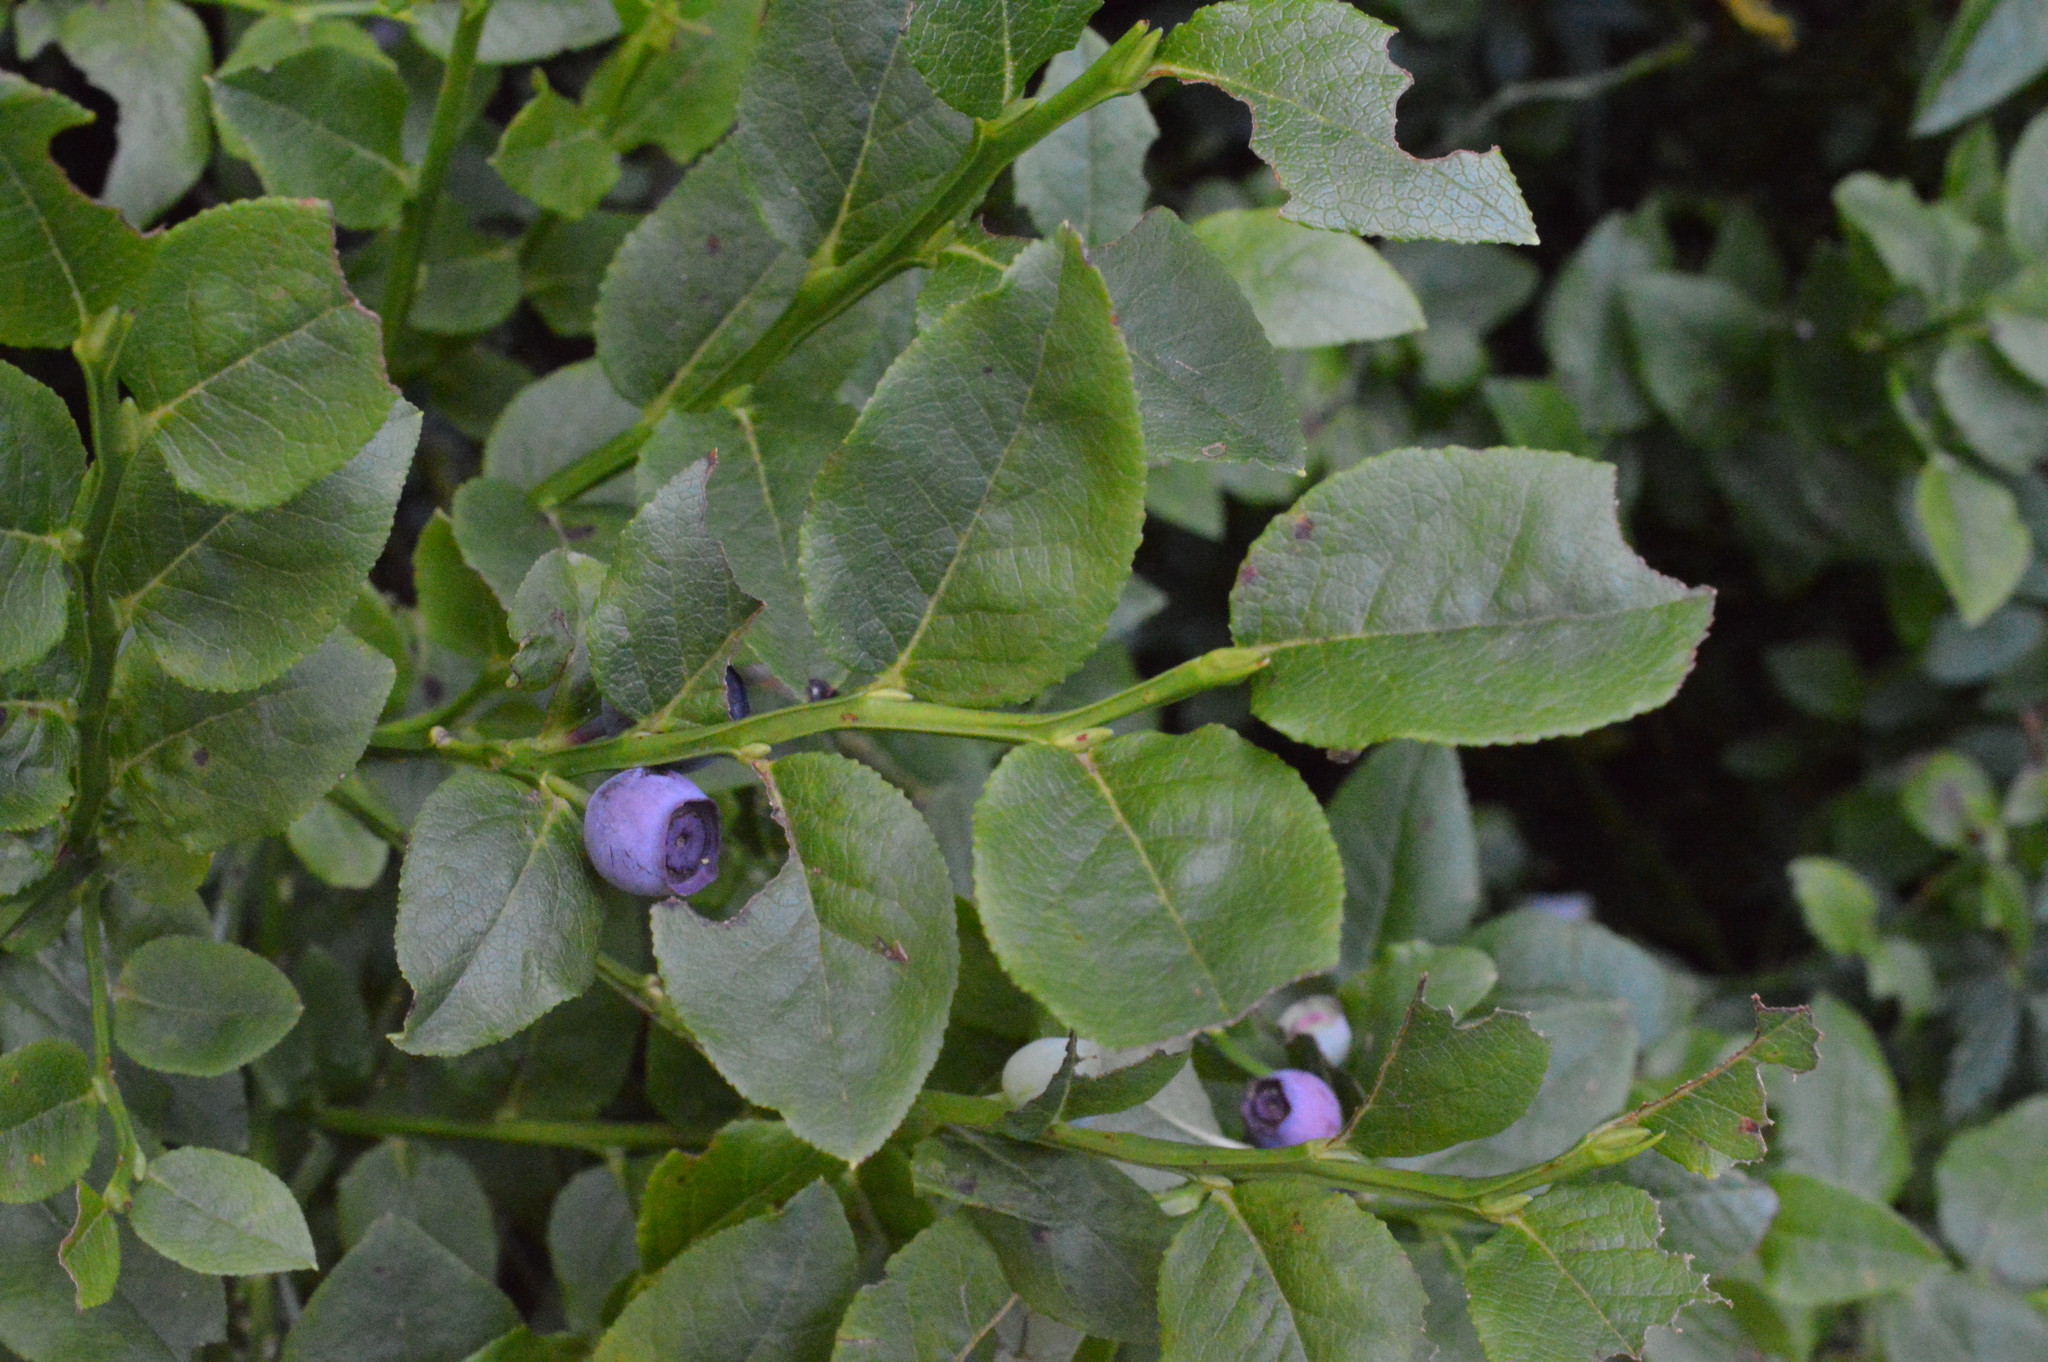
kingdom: Plantae
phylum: Tracheophyta
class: Magnoliopsida
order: Ericales
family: Ericaceae
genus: Vaccinium
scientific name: Vaccinium myrtillus
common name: Bilberry
